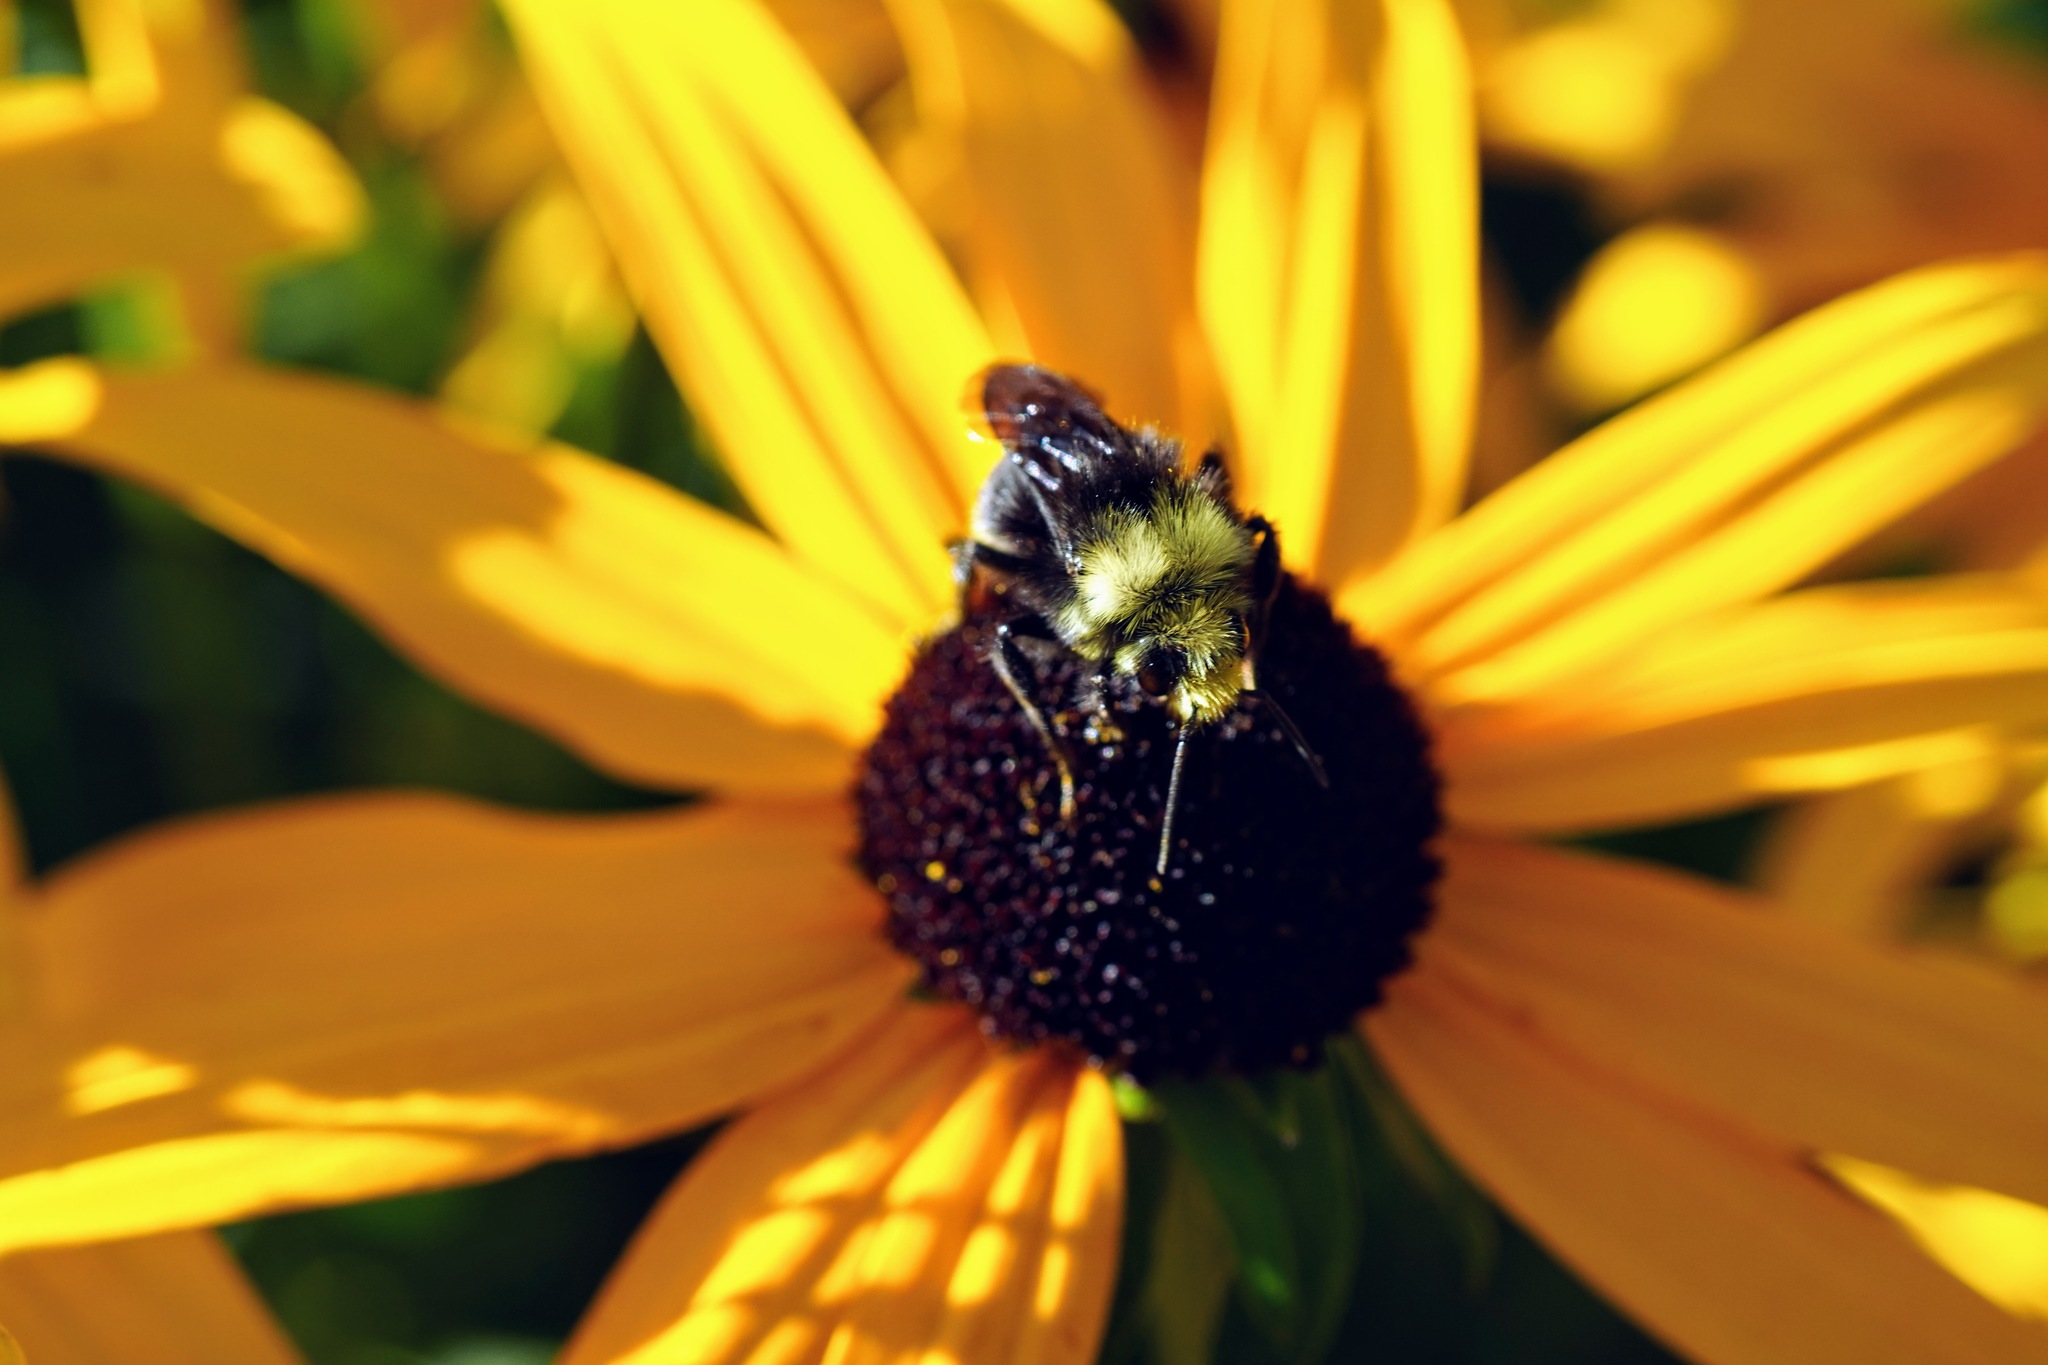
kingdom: Animalia
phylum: Arthropoda
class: Insecta
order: Hymenoptera
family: Apidae
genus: Bombus
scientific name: Bombus vosnesenskii
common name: Vosnesensky bumble bee
